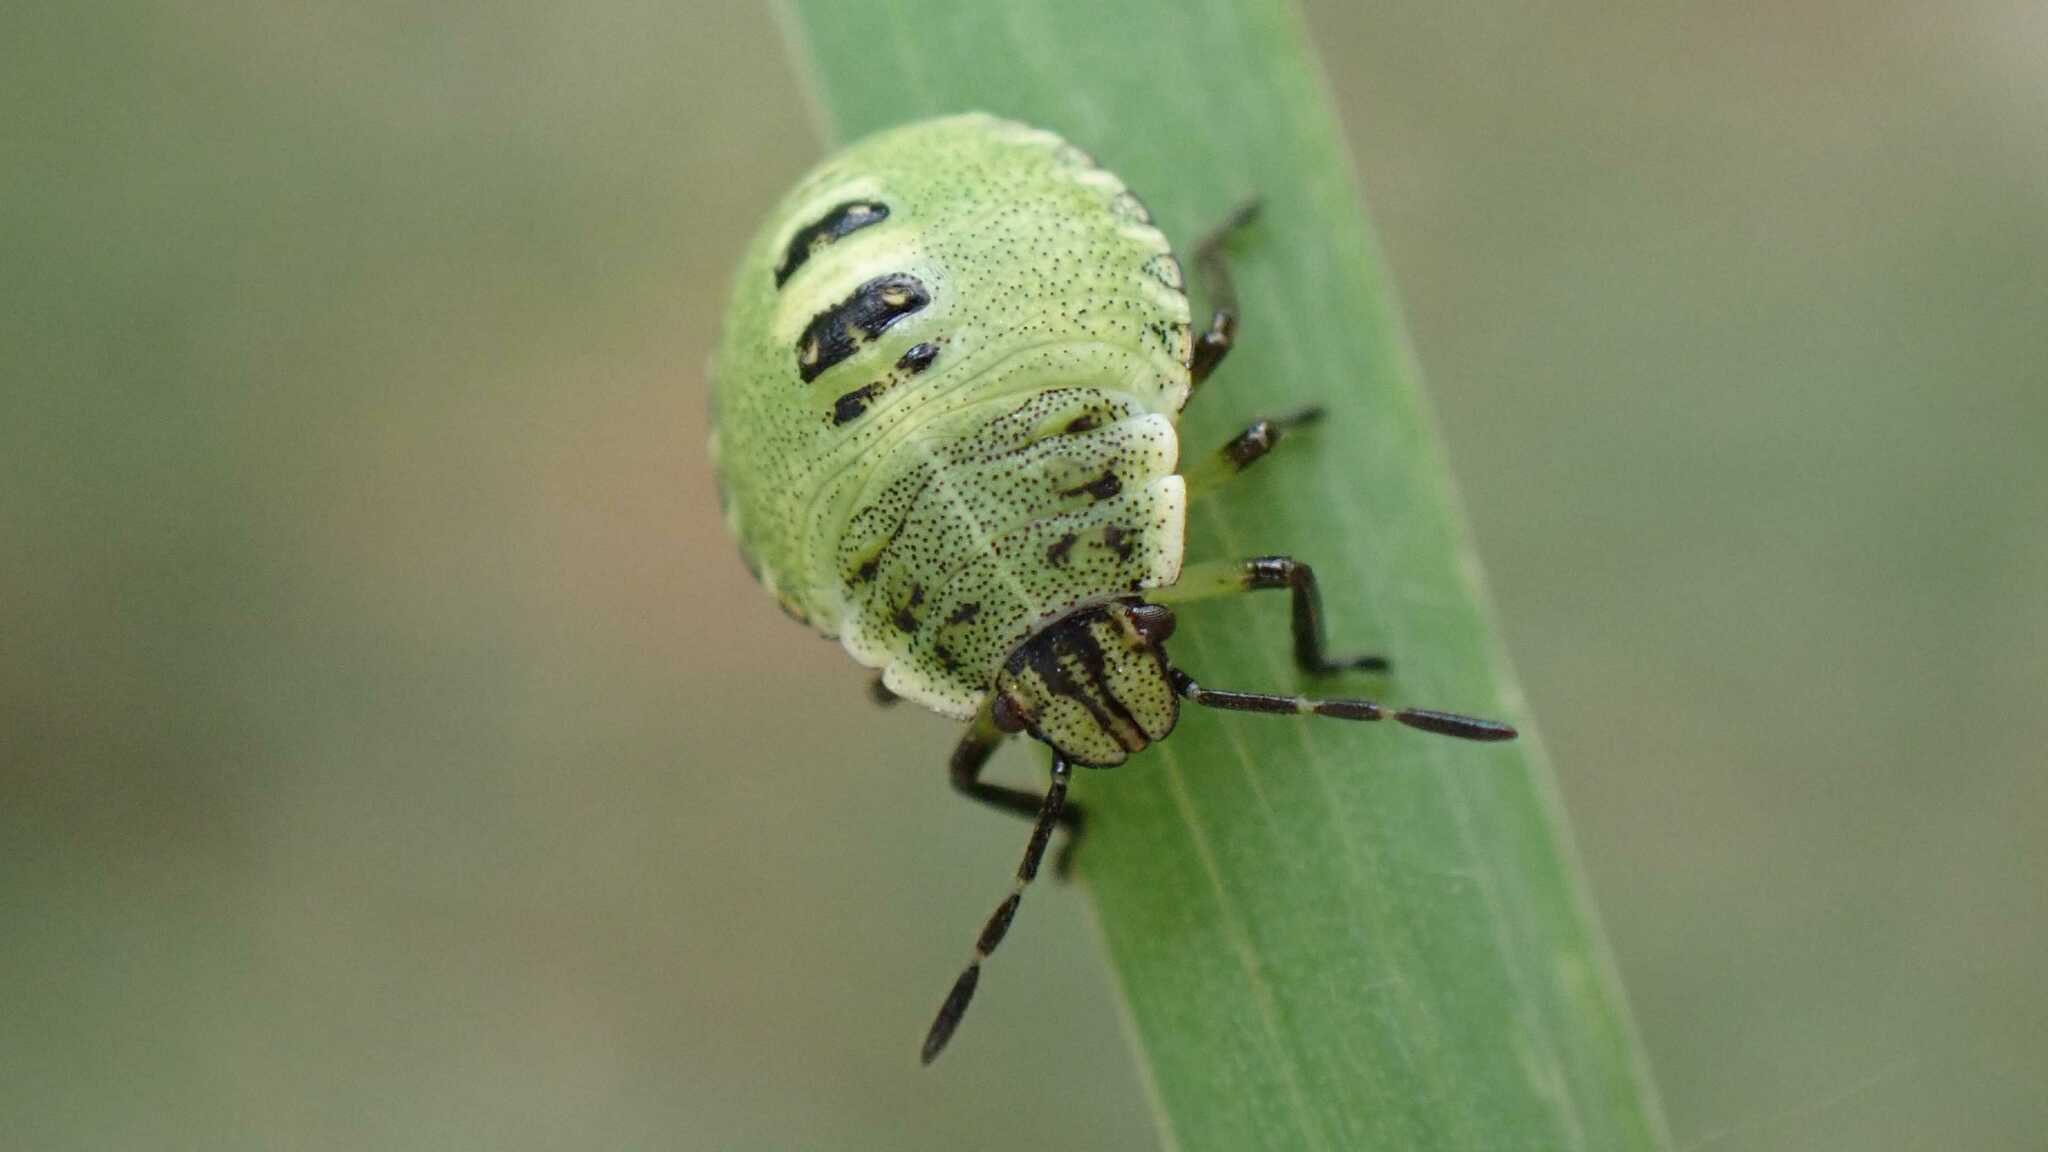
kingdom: Animalia
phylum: Arthropoda
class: Insecta
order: Hemiptera
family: Pentatomidae
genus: Palomena
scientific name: Palomena prasina
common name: Green shieldbug
